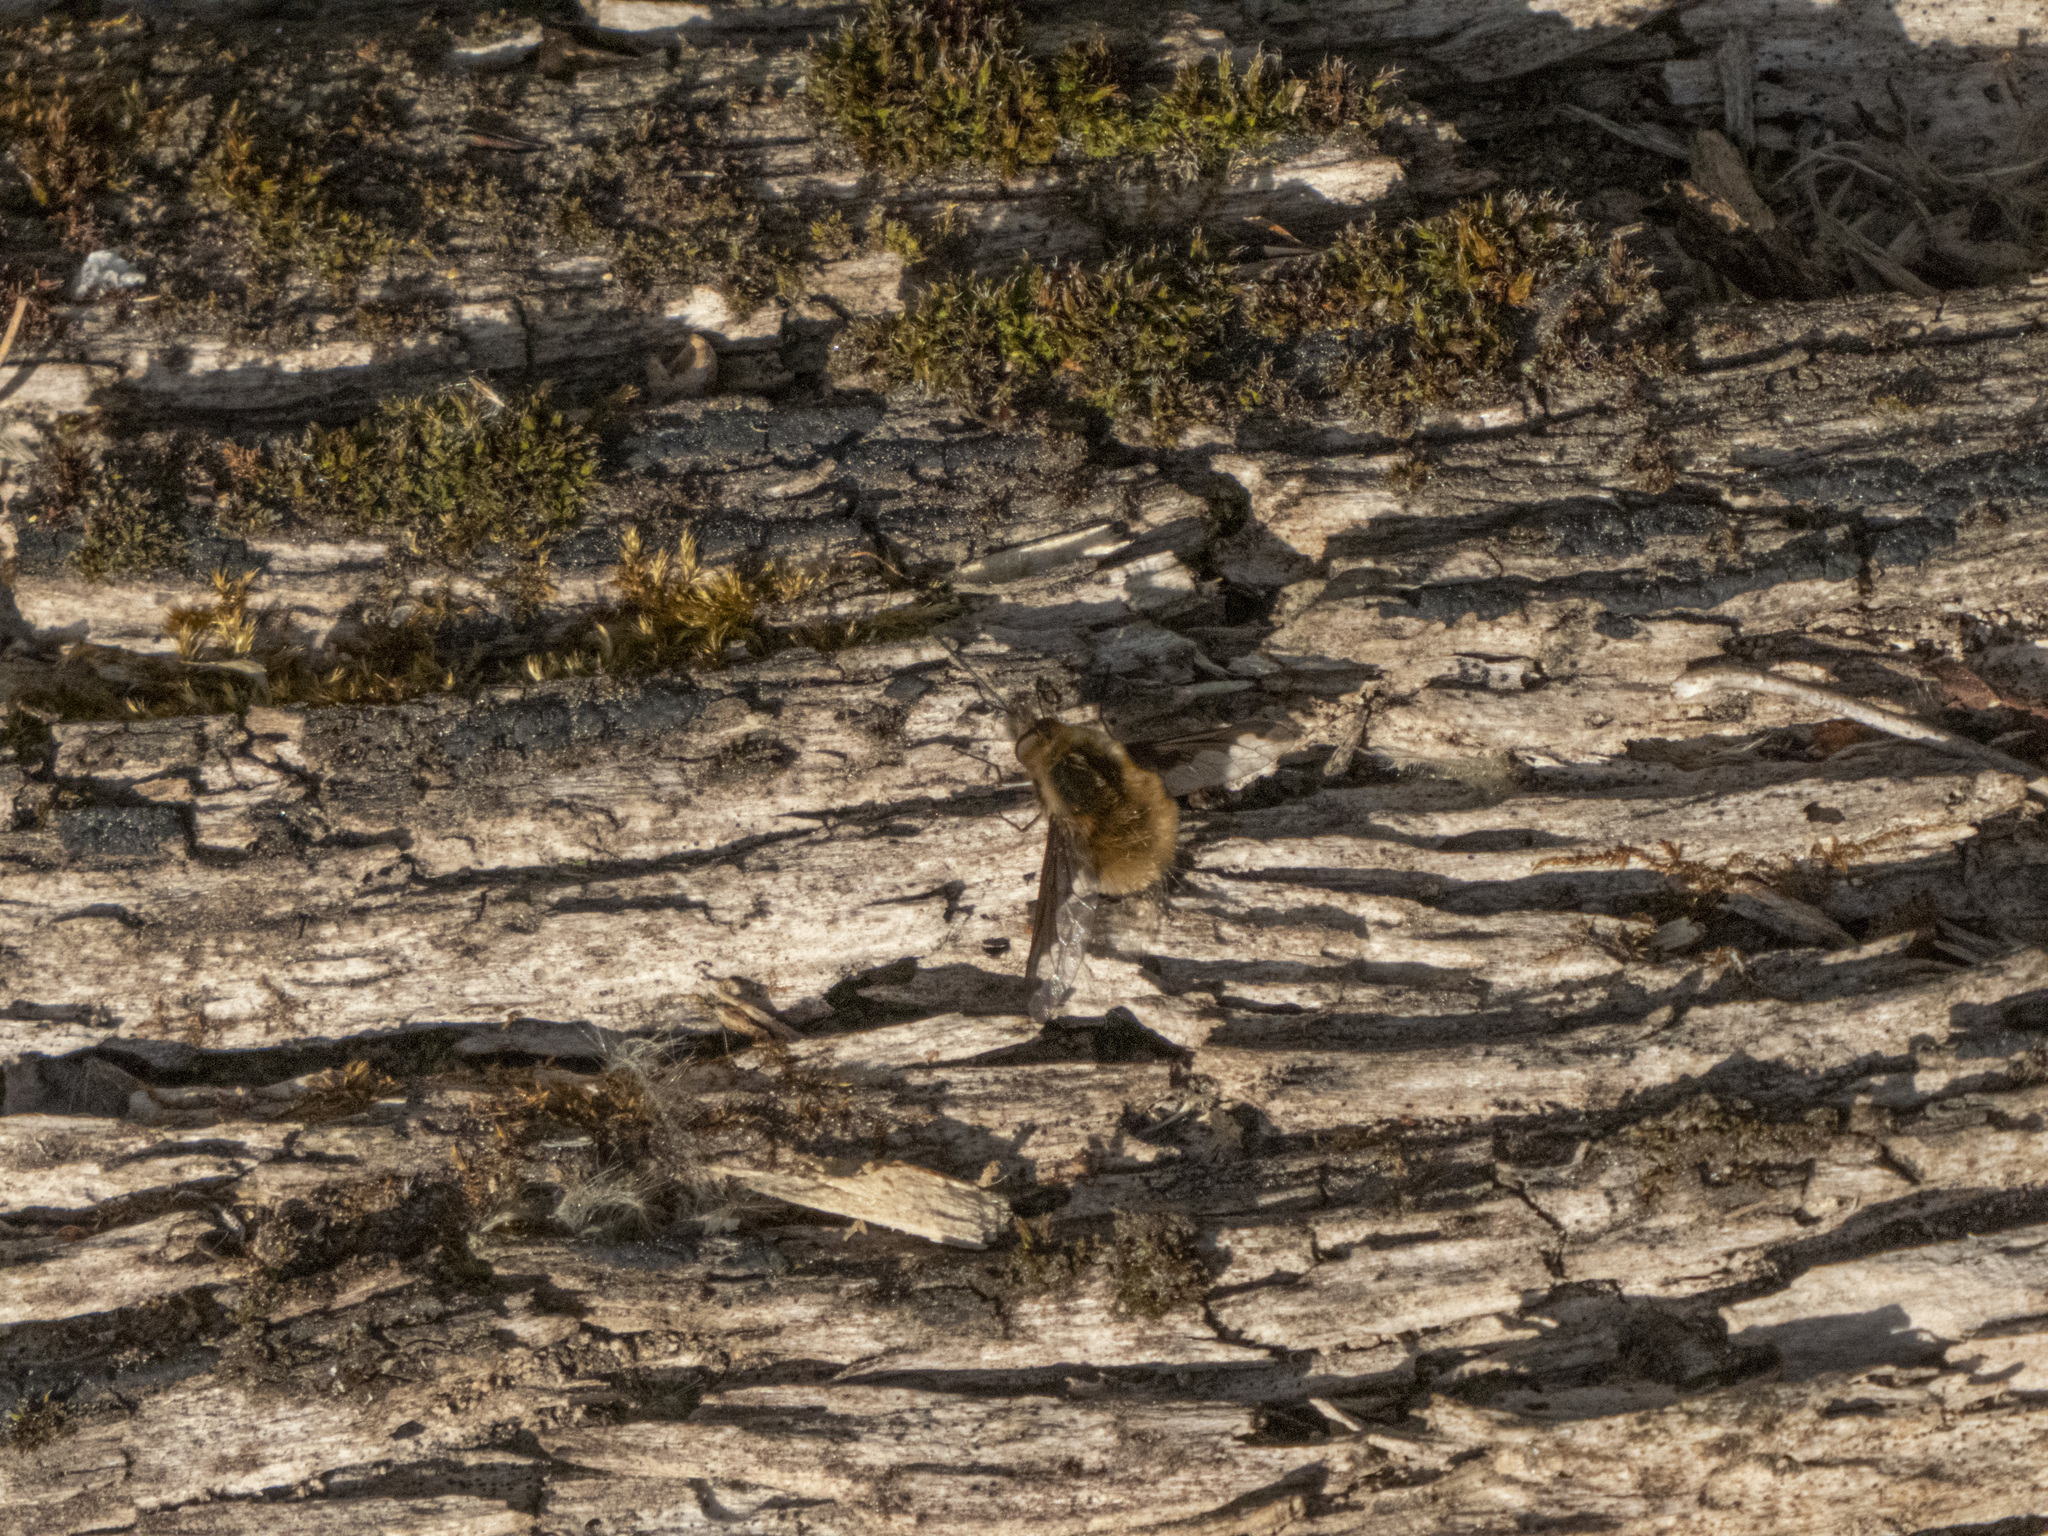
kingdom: Animalia
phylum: Arthropoda
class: Insecta
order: Diptera
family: Bombyliidae
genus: Bombylius
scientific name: Bombylius major
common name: Bee fly
